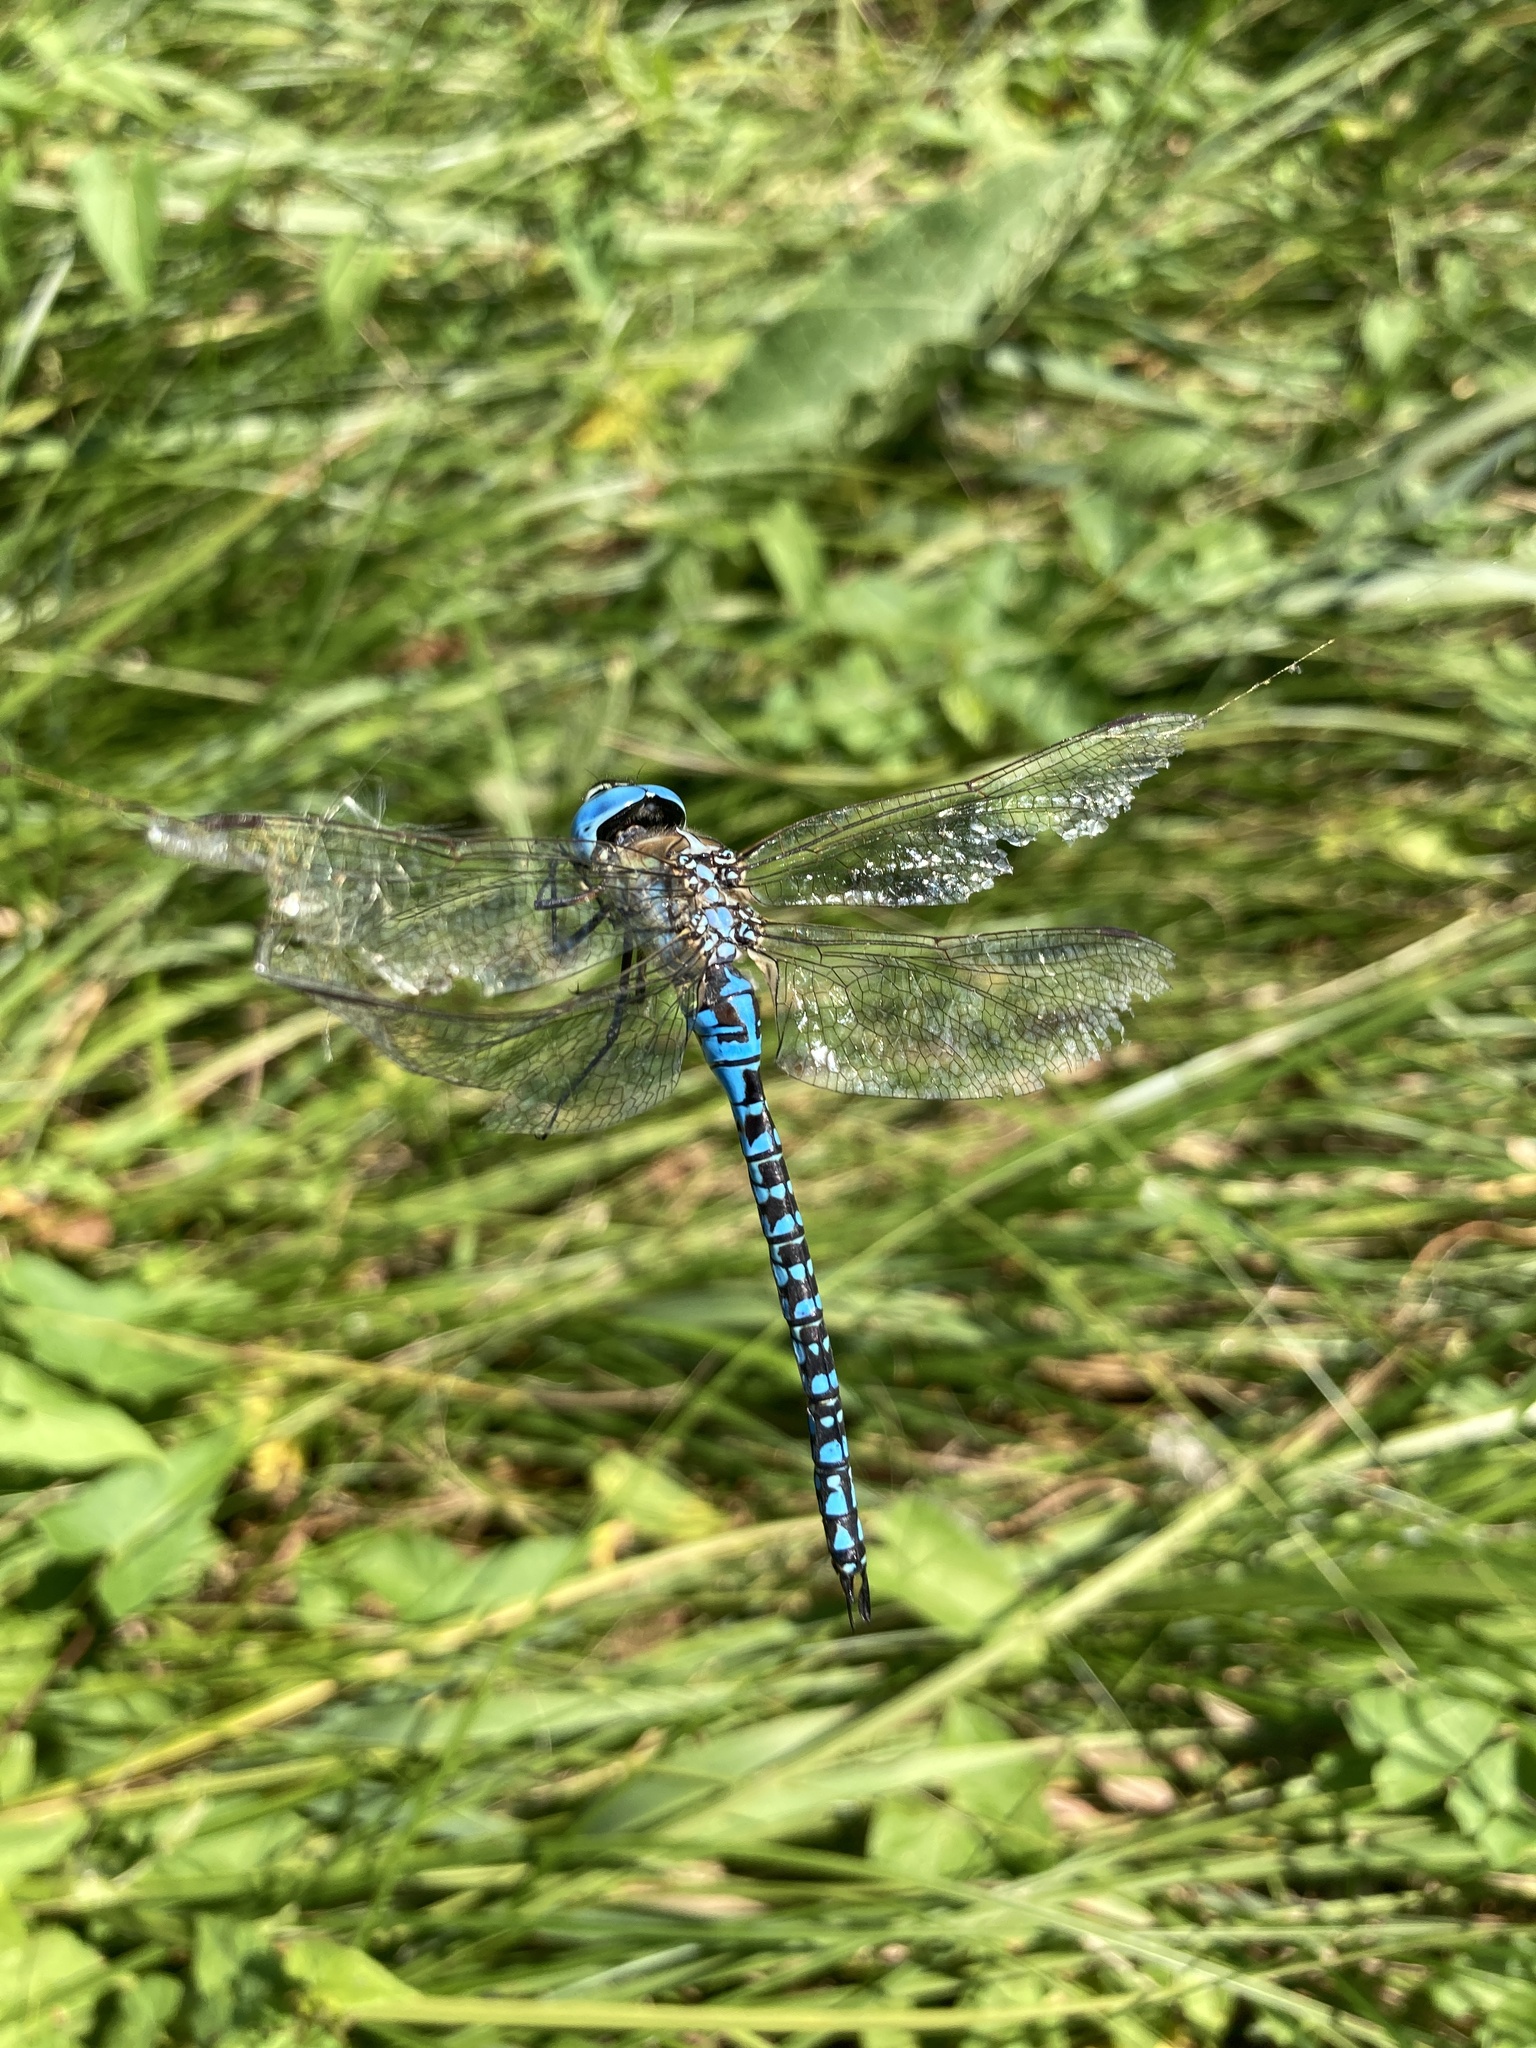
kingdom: Animalia
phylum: Arthropoda
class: Insecta
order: Odonata
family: Aeshnidae
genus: Aeshna
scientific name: Aeshna affinis
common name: Southern migrant hawker
